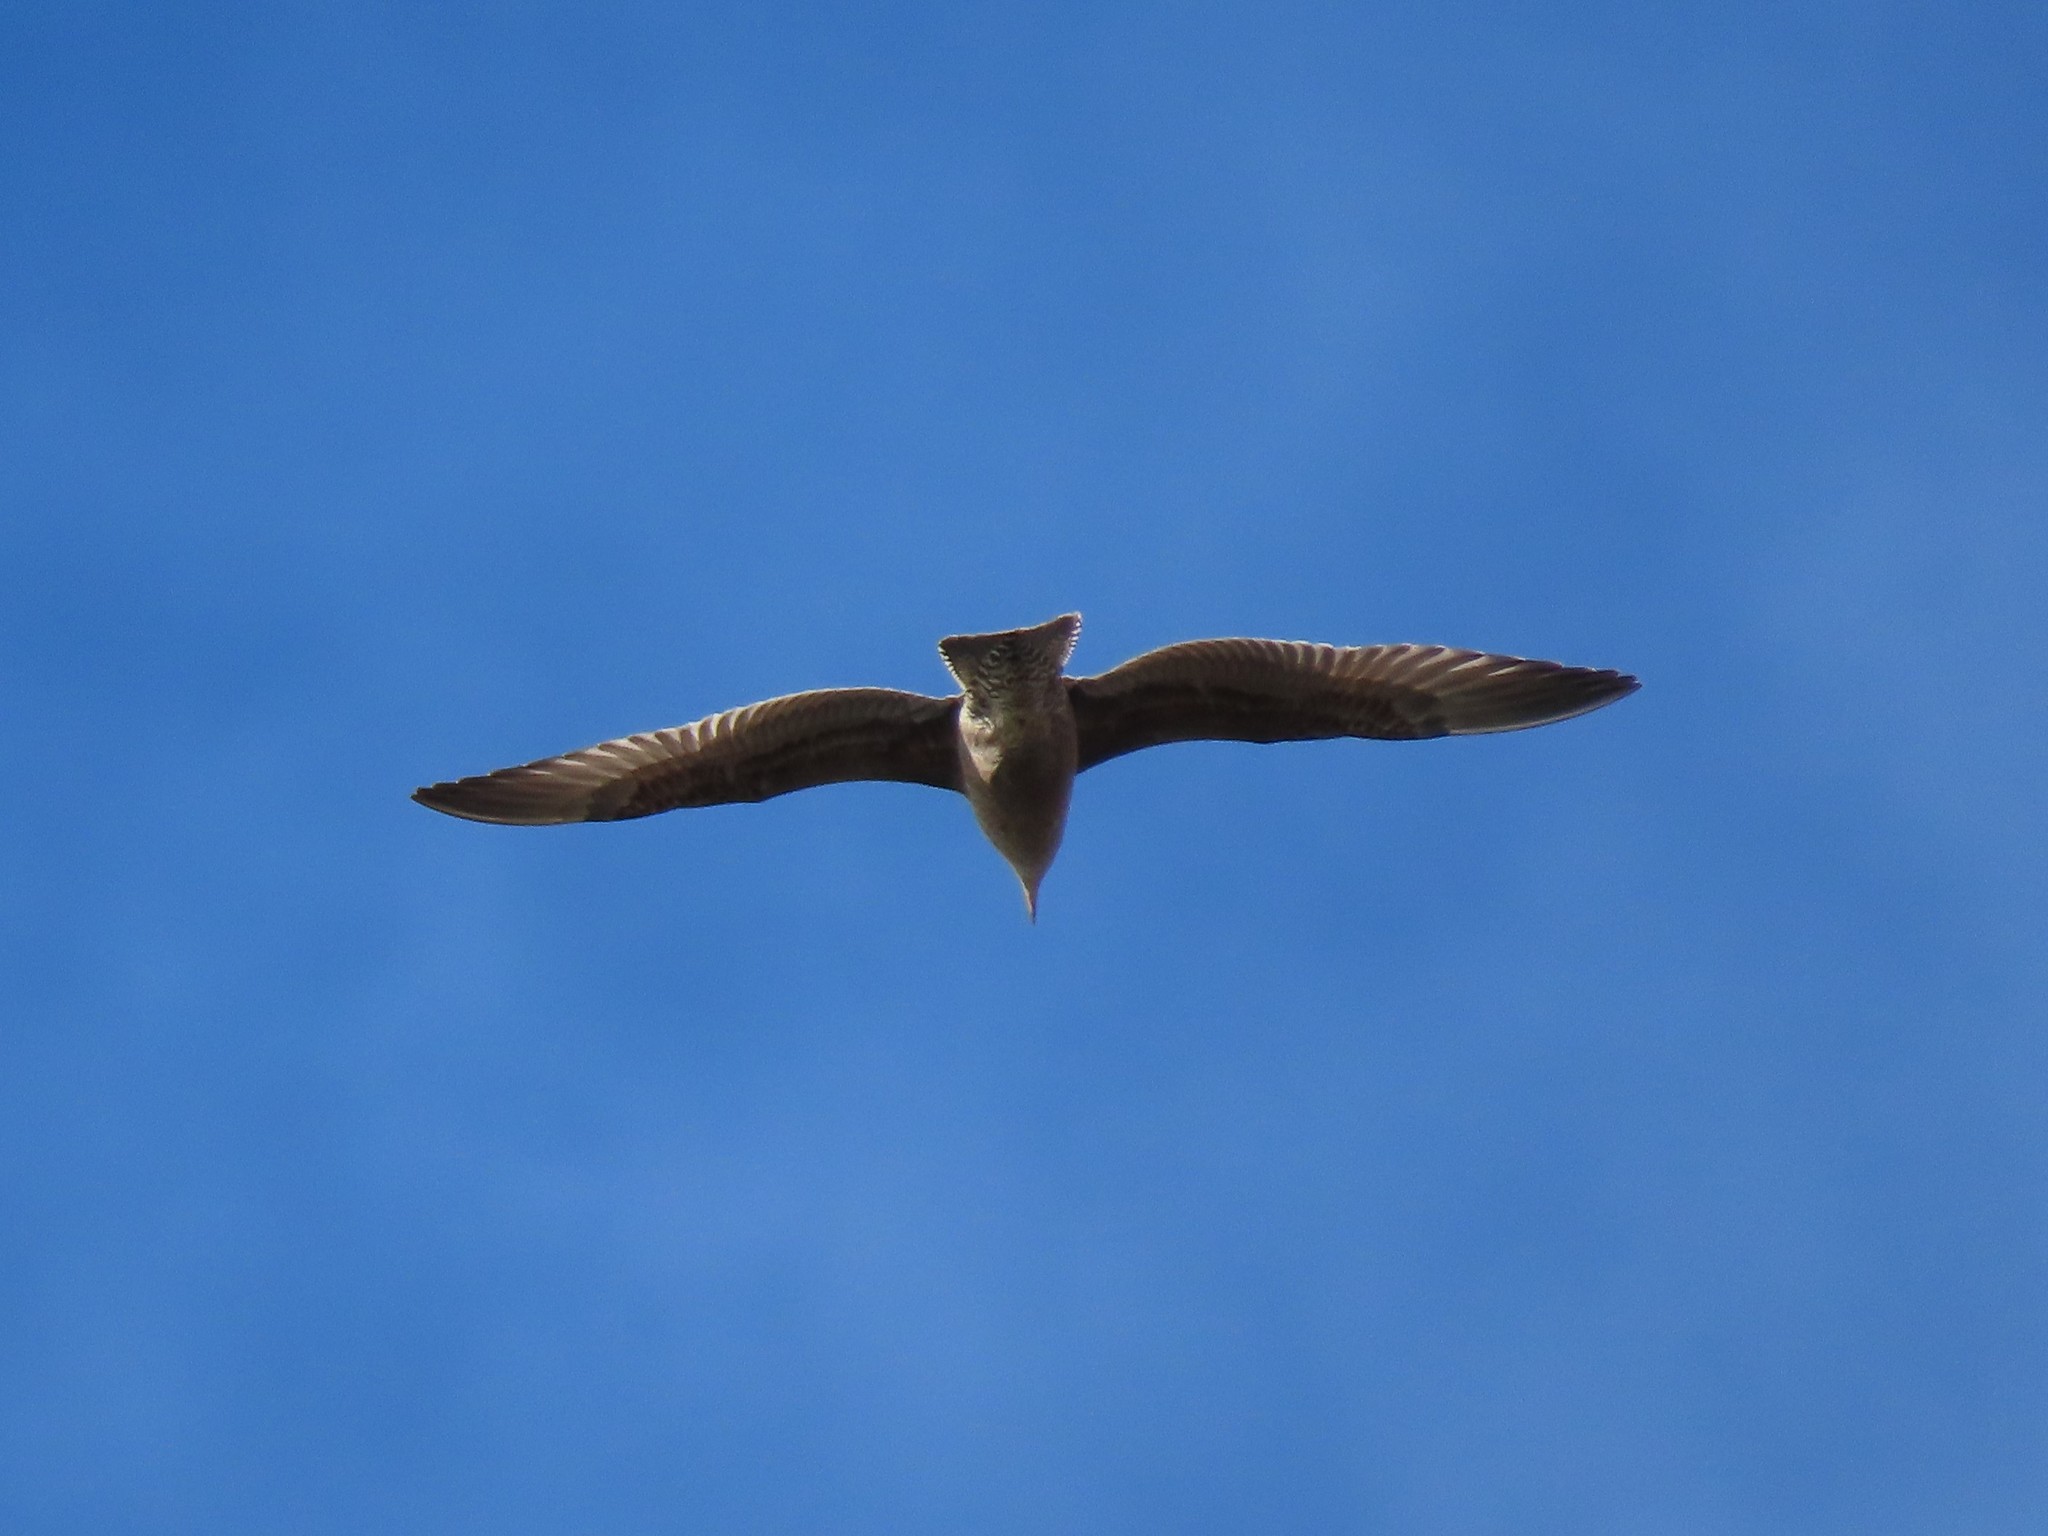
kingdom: Animalia
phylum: Chordata
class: Aves
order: Charadriiformes
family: Laridae
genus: Larus
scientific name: Larus argentatus
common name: Herring gull
